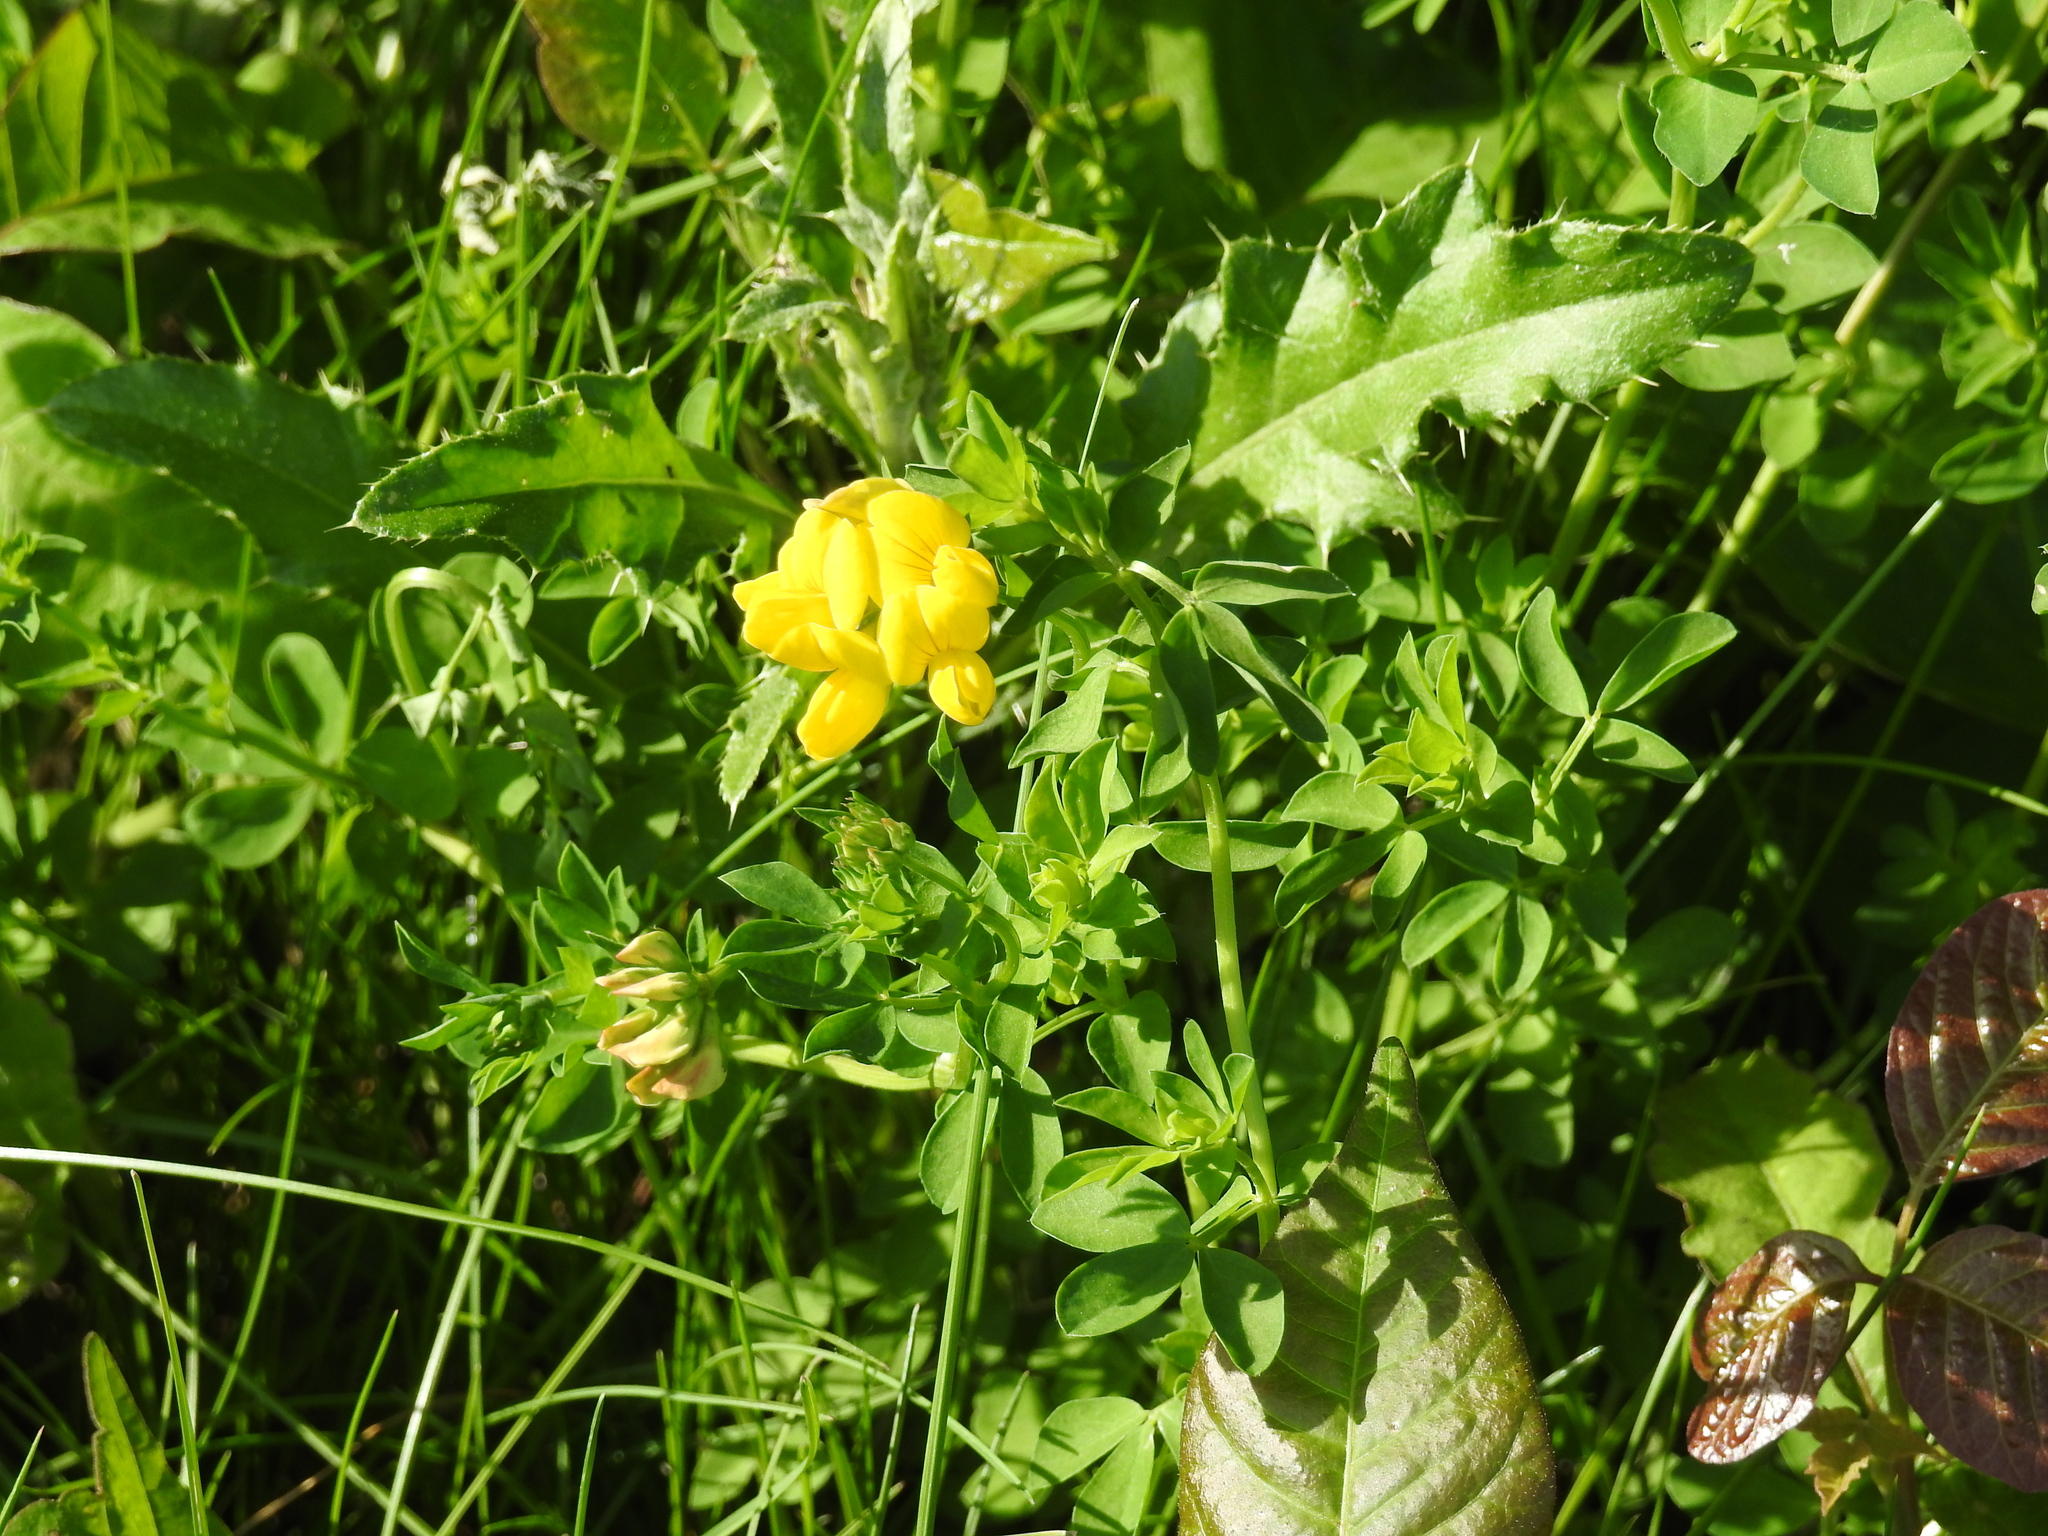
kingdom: Plantae
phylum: Tracheophyta
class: Magnoliopsida
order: Fabales
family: Fabaceae
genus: Lotus
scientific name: Lotus corniculatus
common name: Common bird's-foot-trefoil
